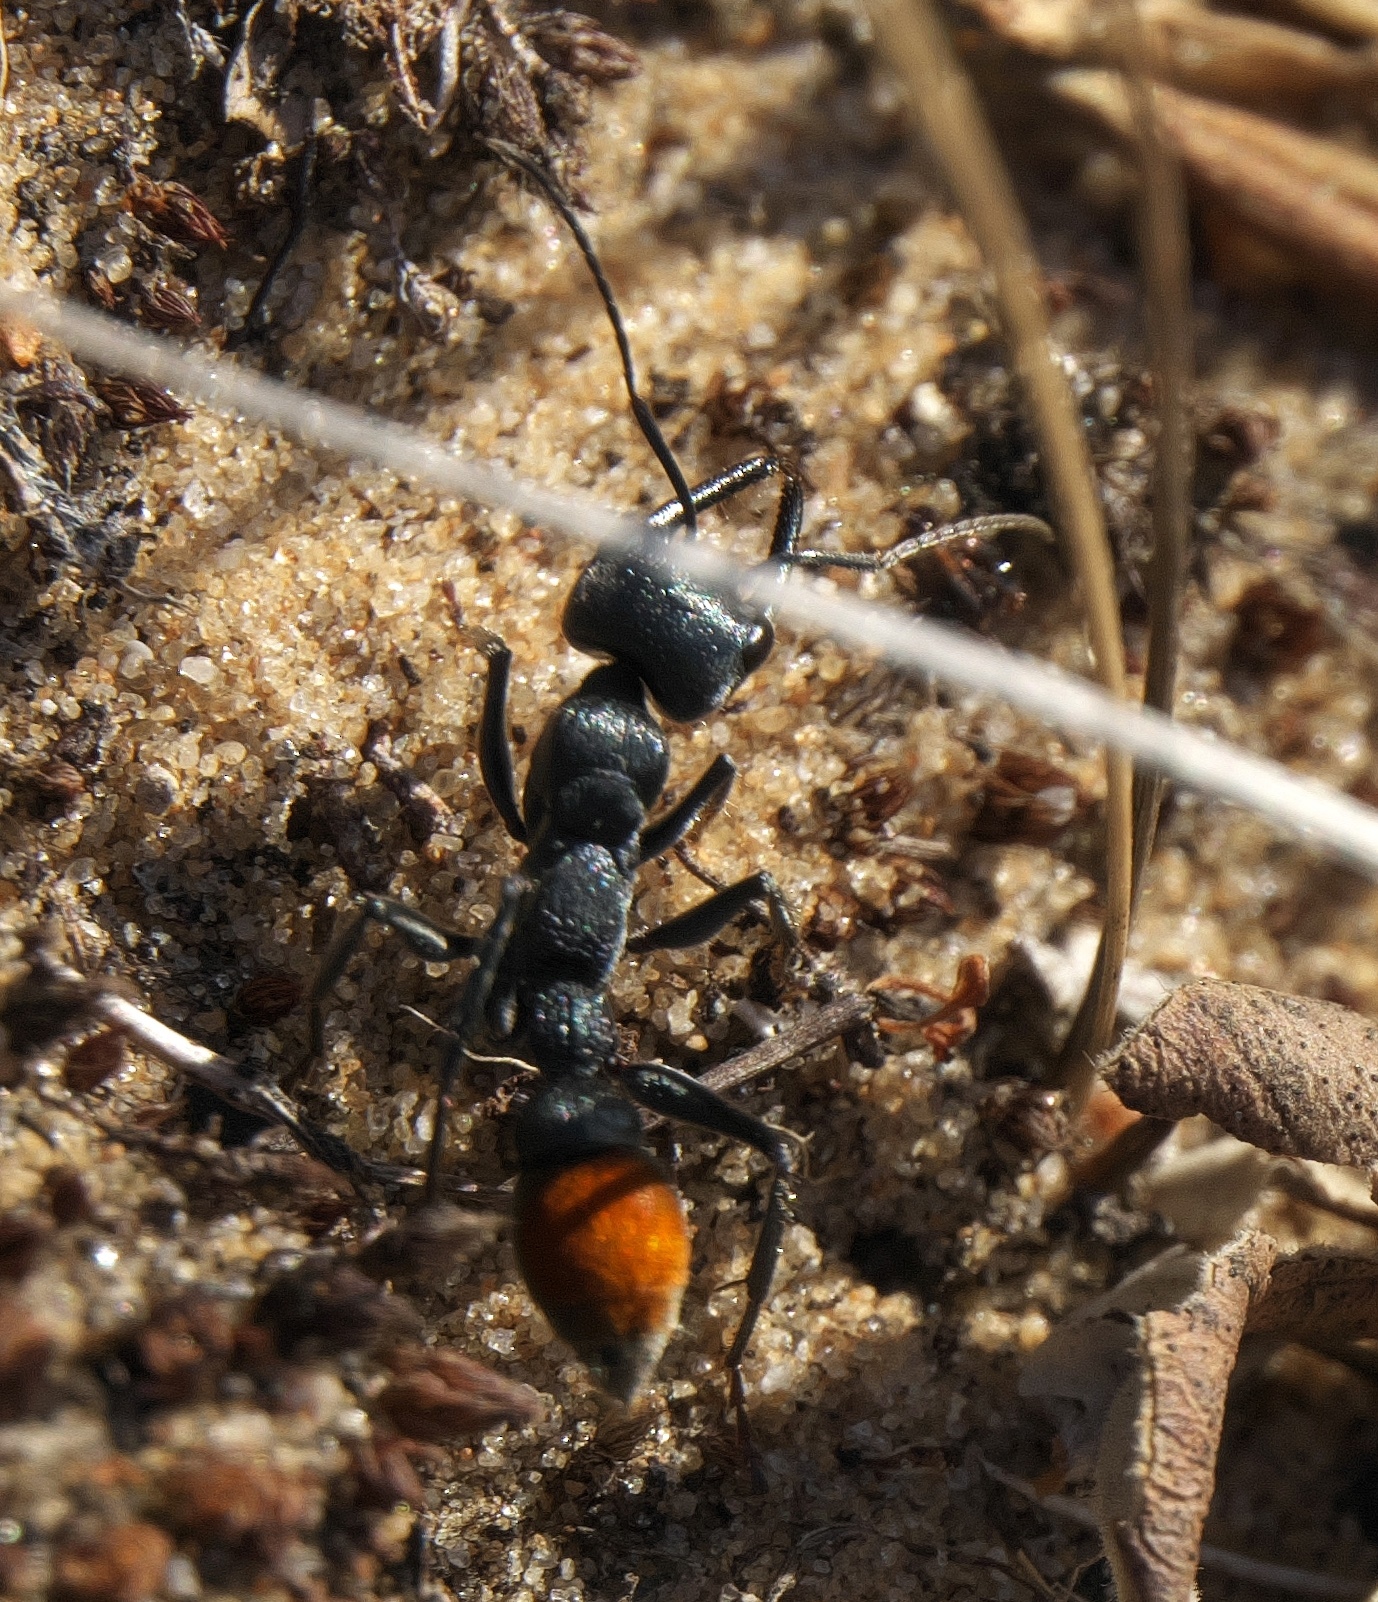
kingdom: Animalia
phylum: Arthropoda
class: Insecta
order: Hymenoptera
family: Formicidae
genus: Myrmecia
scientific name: Myrmecia mandibularis
